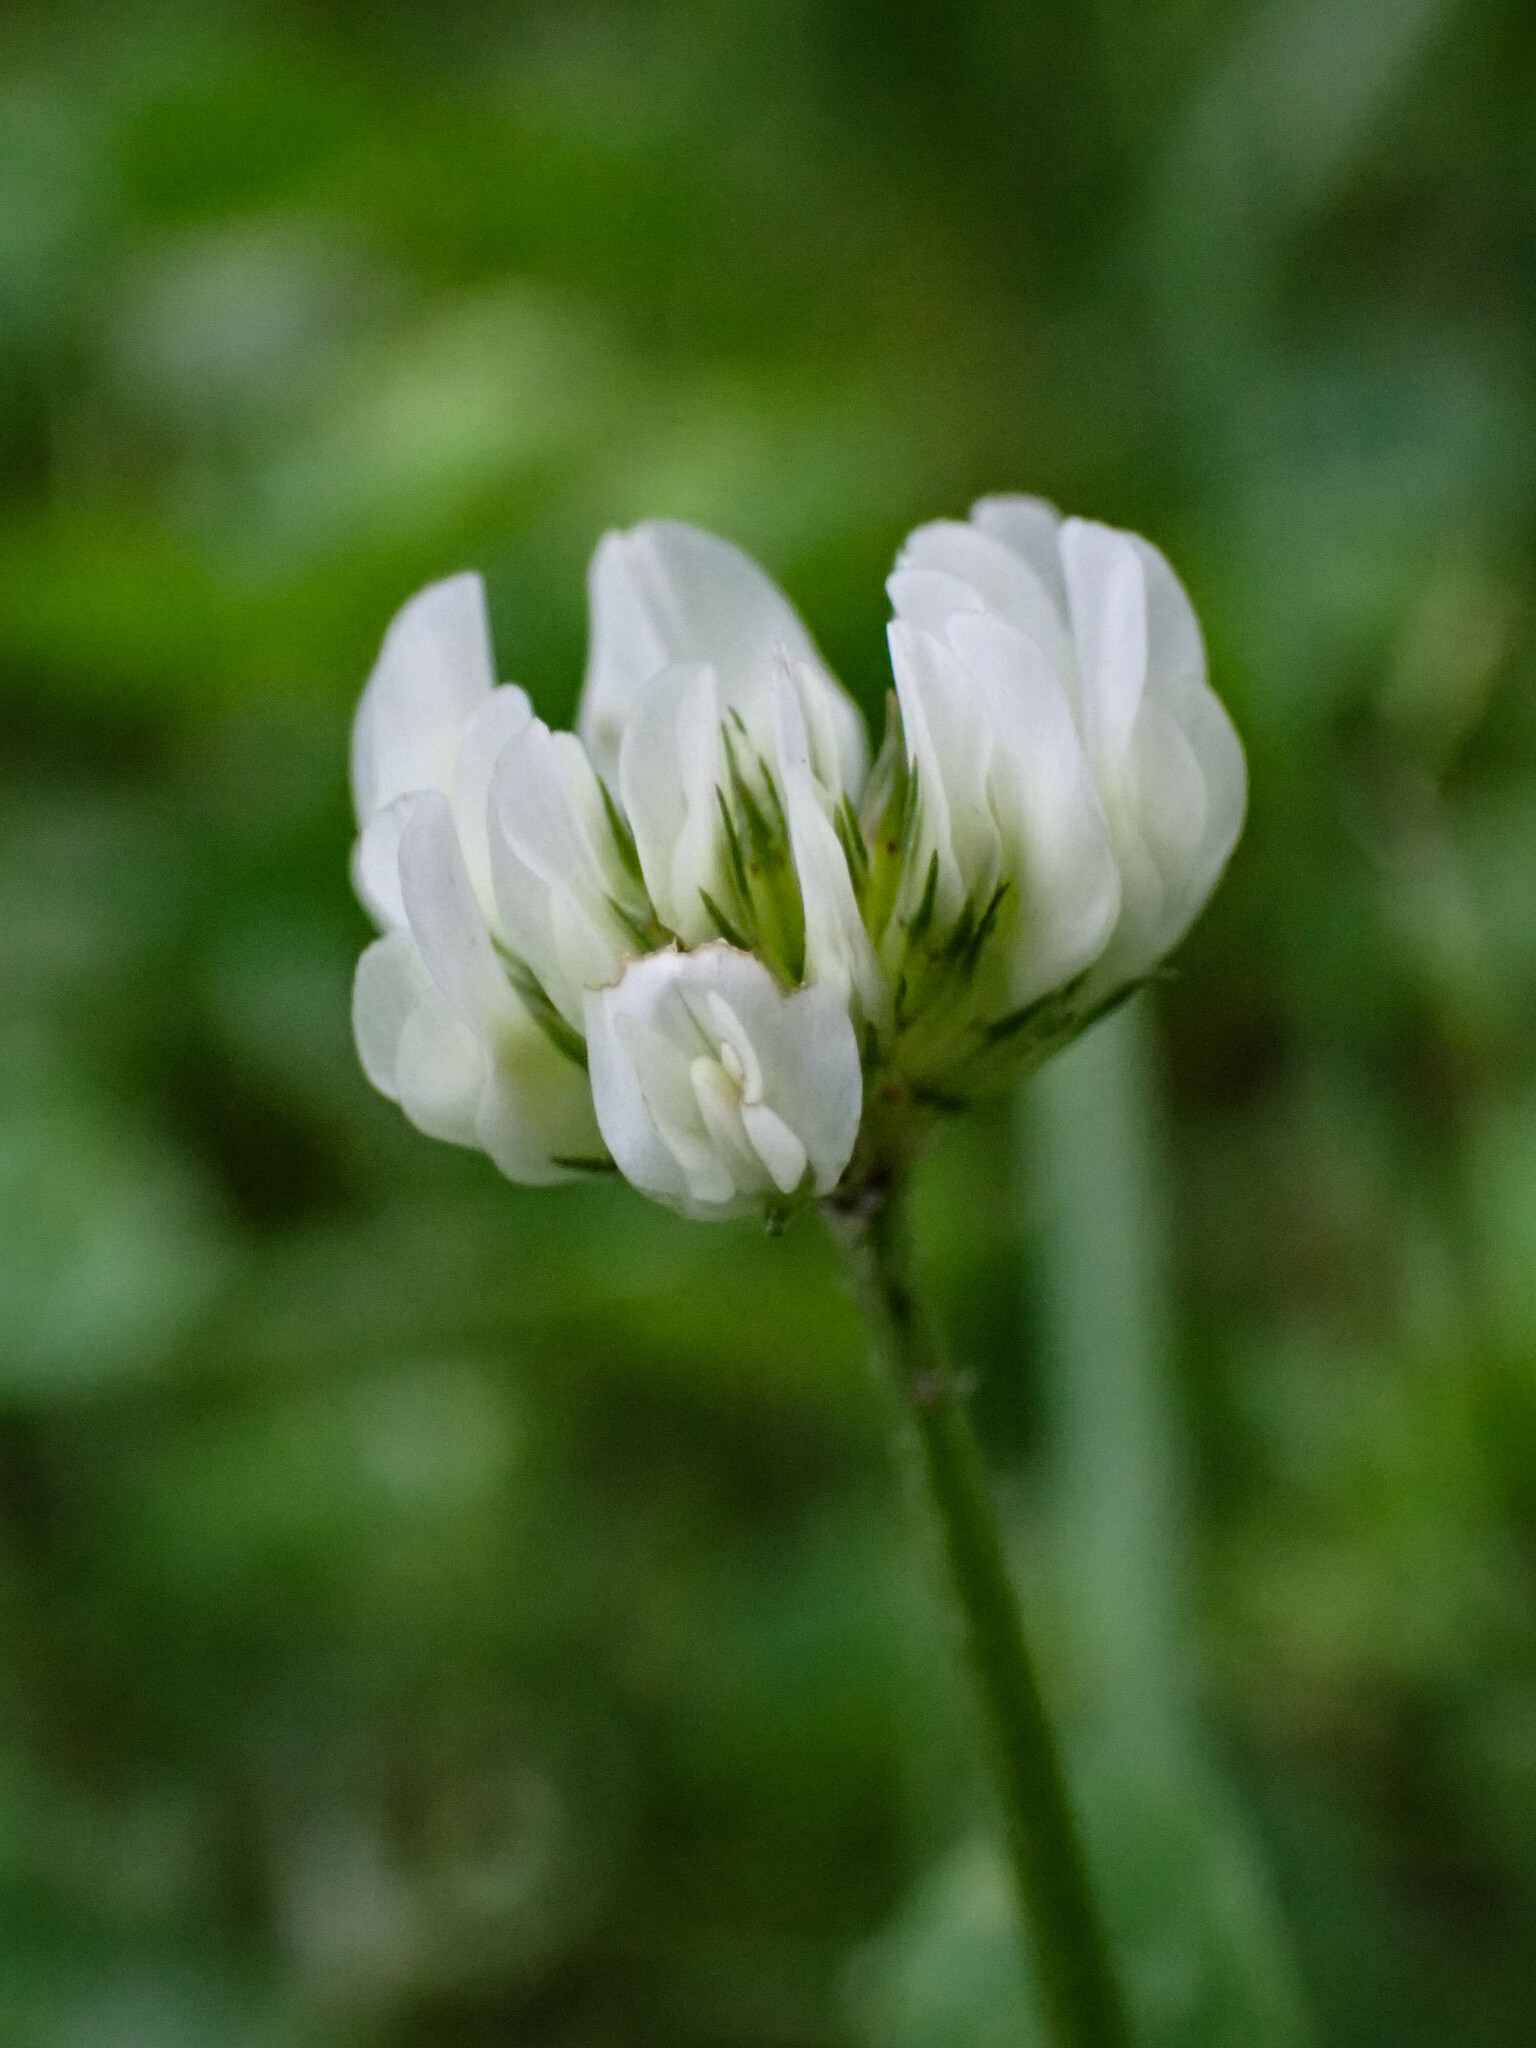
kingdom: Plantae
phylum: Tracheophyta
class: Magnoliopsida
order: Fabales
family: Fabaceae
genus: Trifolium
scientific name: Trifolium repens
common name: White clover
